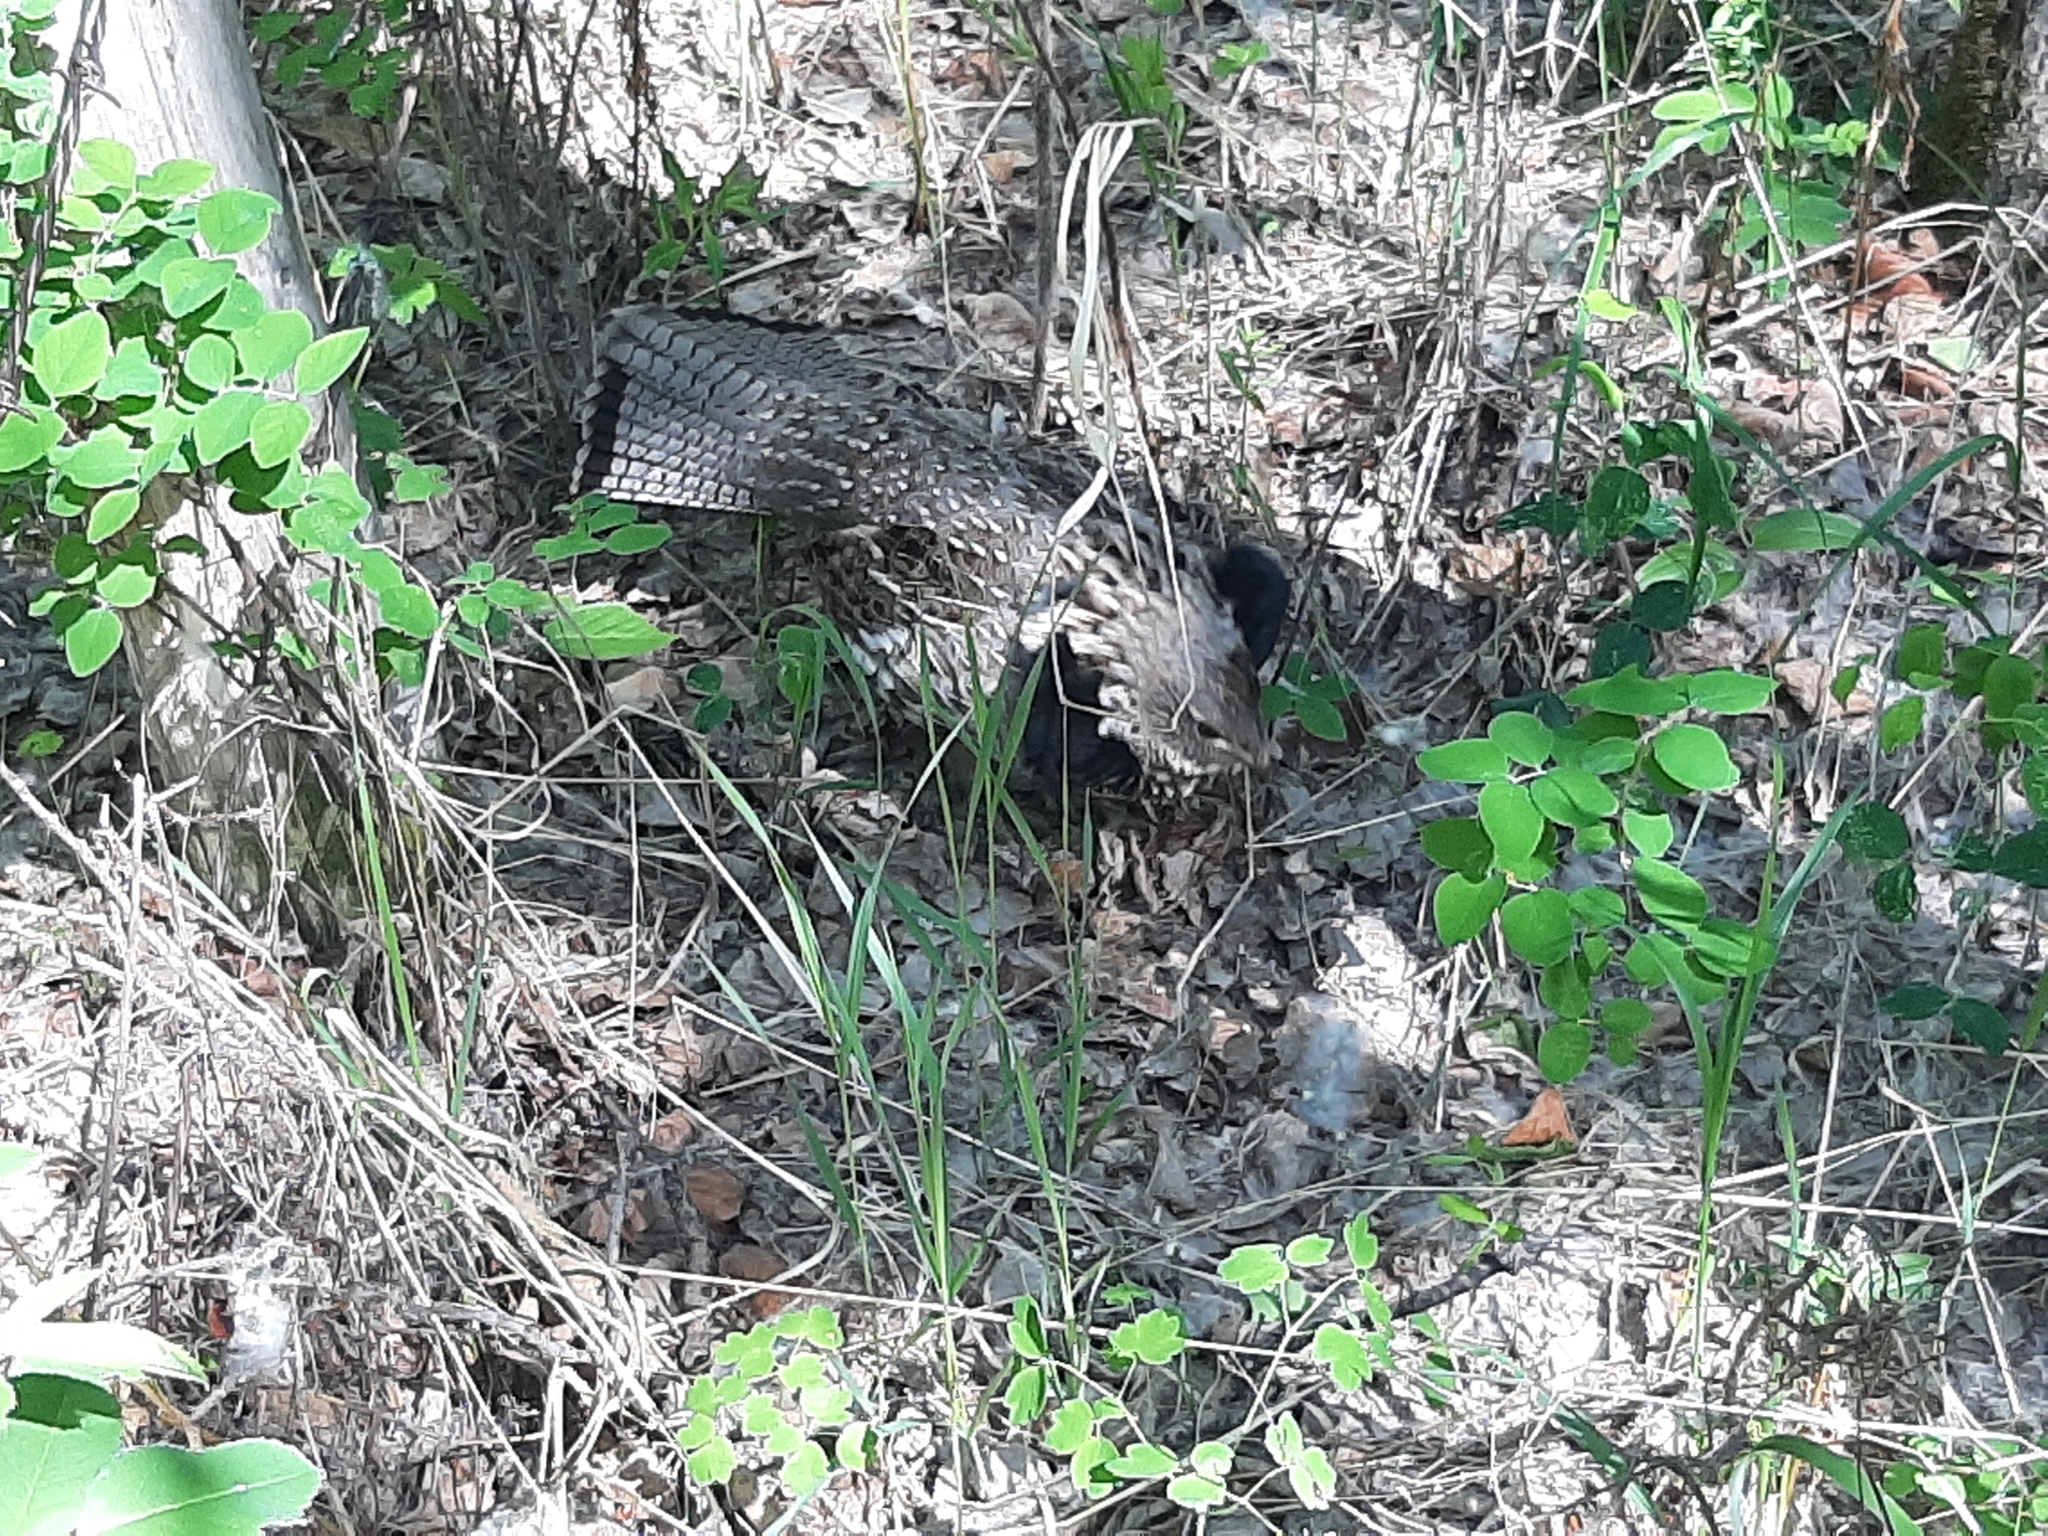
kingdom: Animalia
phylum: Chordata
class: Aves
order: Galliformes
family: Phasianidae
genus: Bonasa
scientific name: Bonasa umbellus
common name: Ruffed grouse
